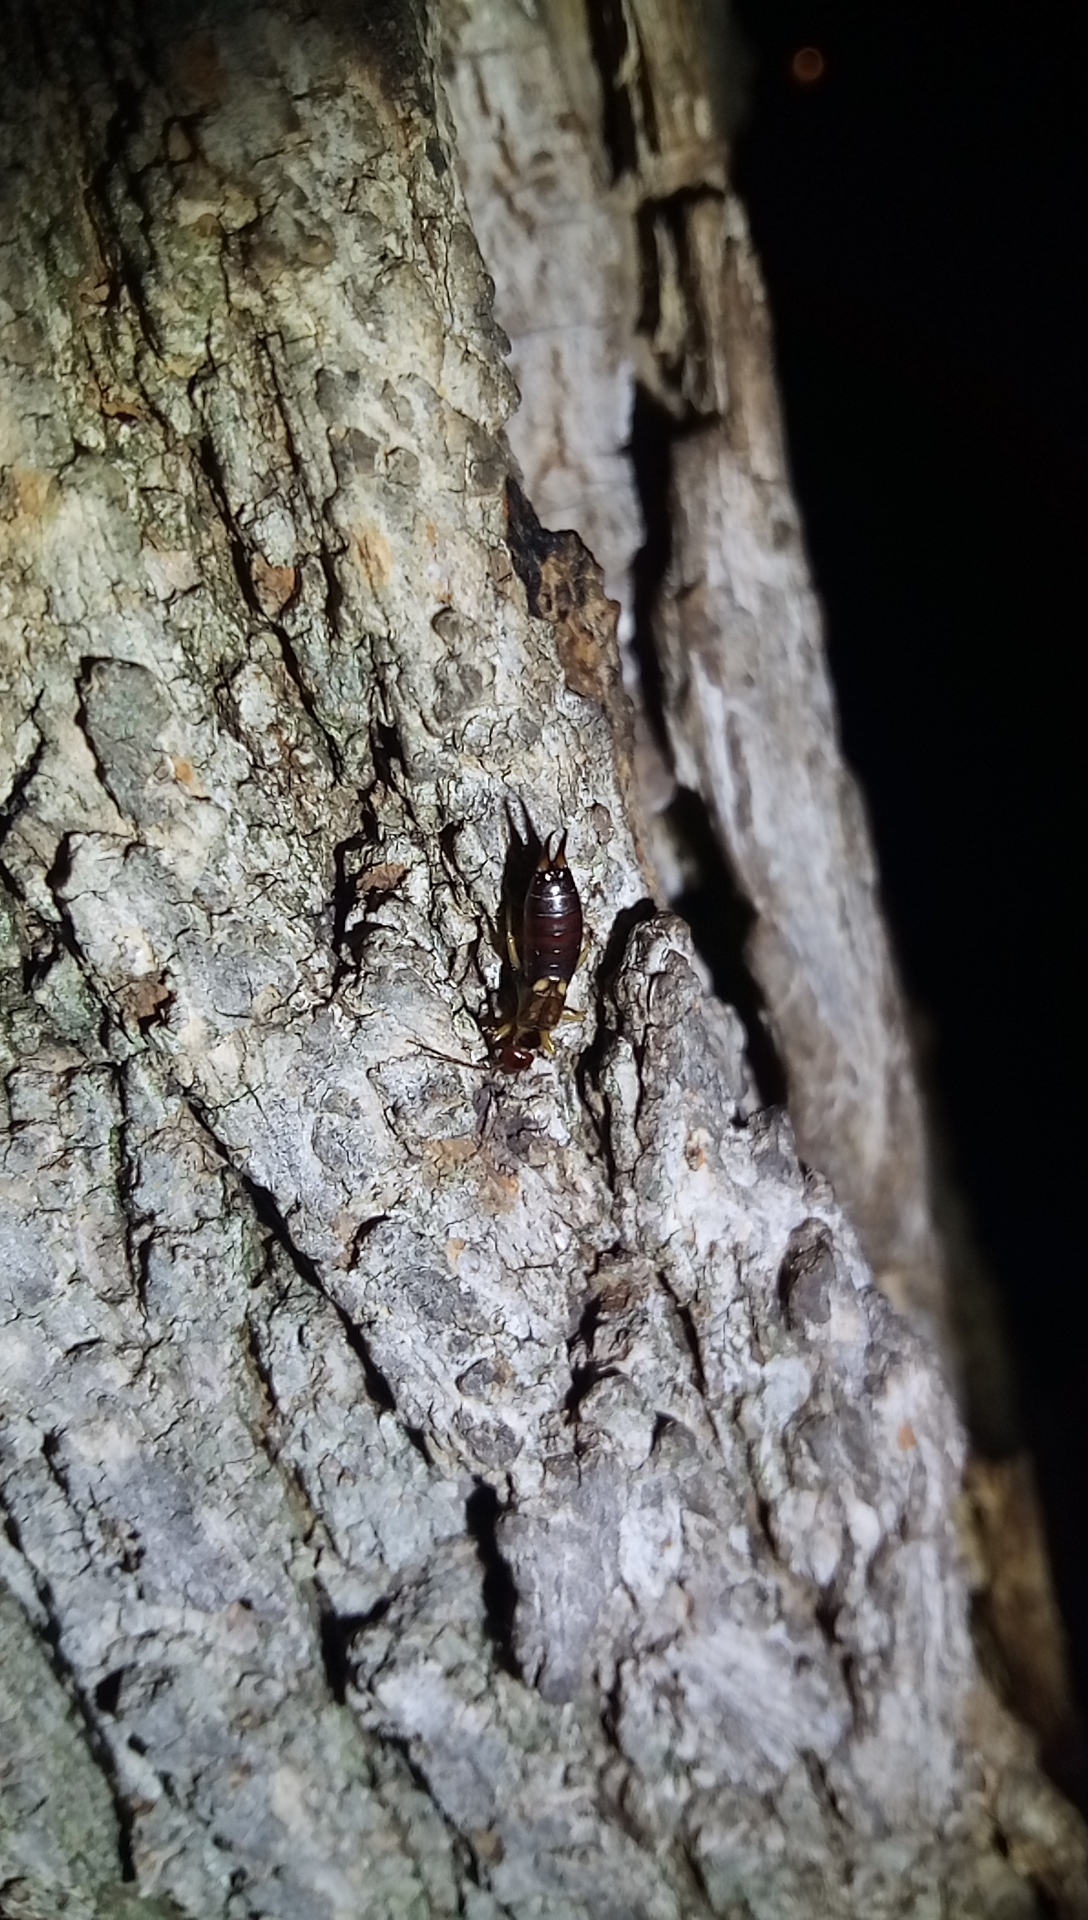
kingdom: Animalia
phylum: Arthropoda
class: Insecta
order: Dermaptera
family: Forficulidae
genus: Forficula
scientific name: Forficula dentata
